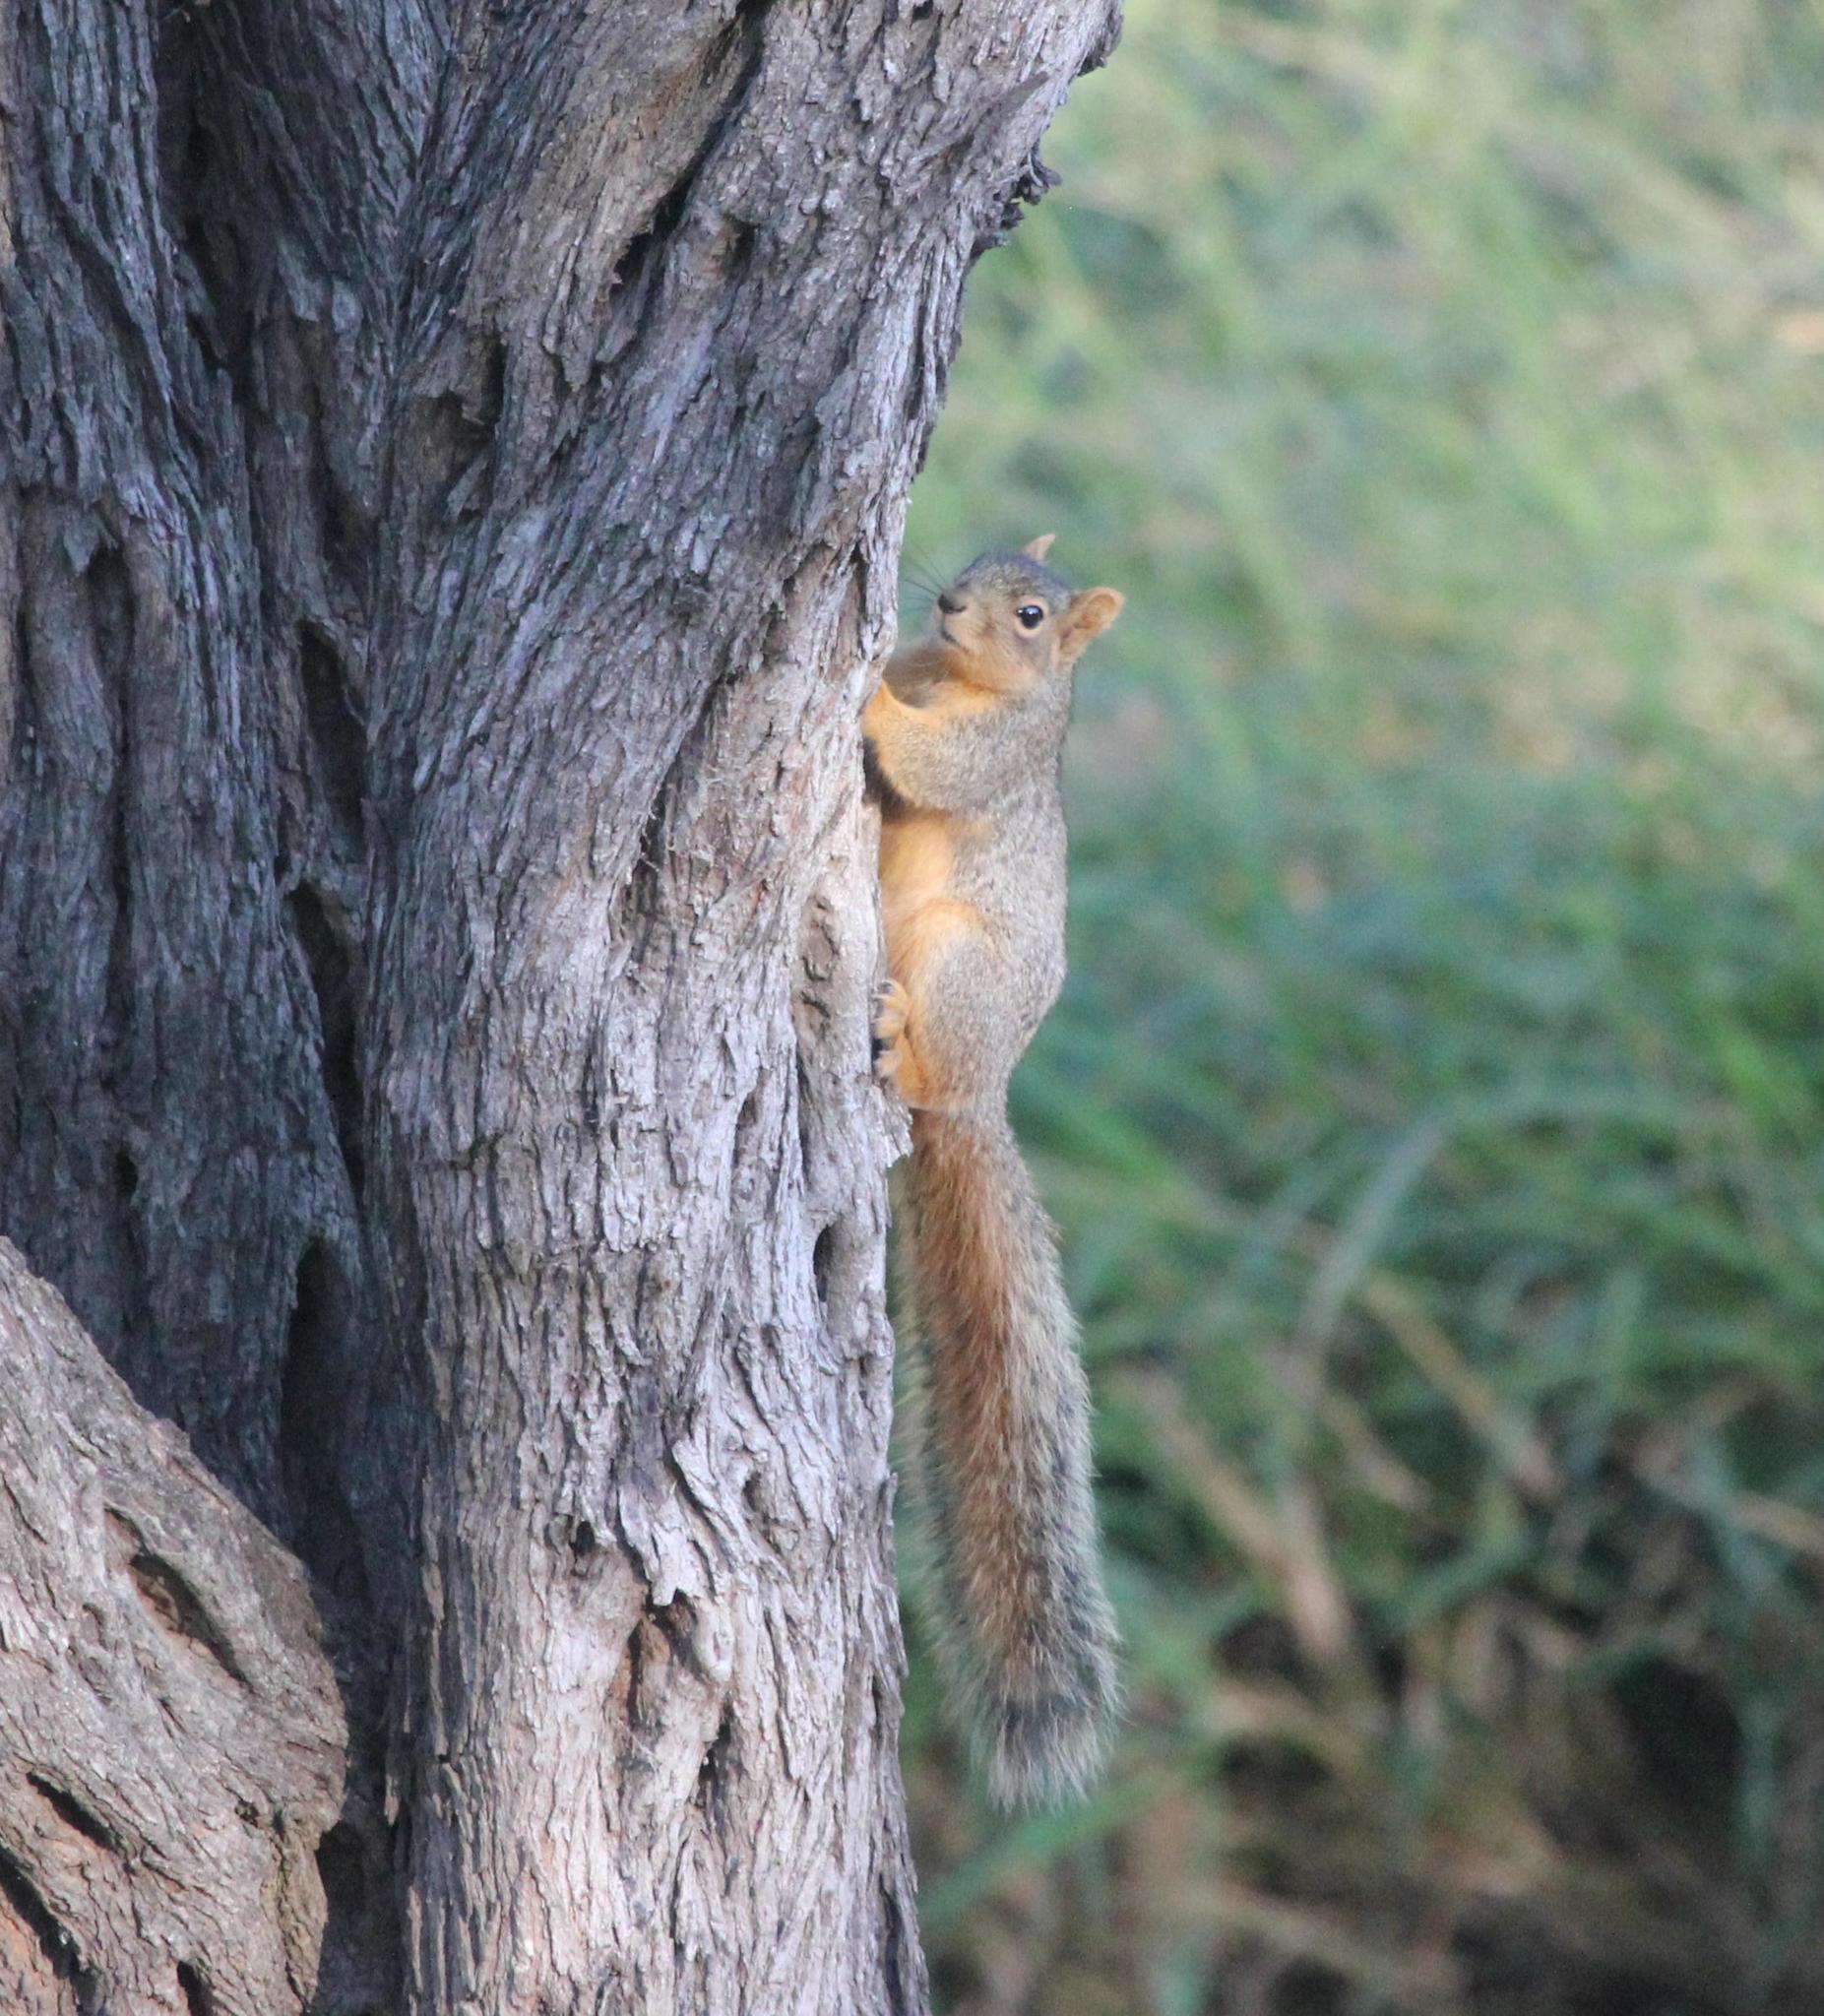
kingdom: Animalia
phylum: Chordata
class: Mammalia
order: Rodentia
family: Sciuridae
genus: Sciurus
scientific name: Sciurus niger
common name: Fox squirrel
